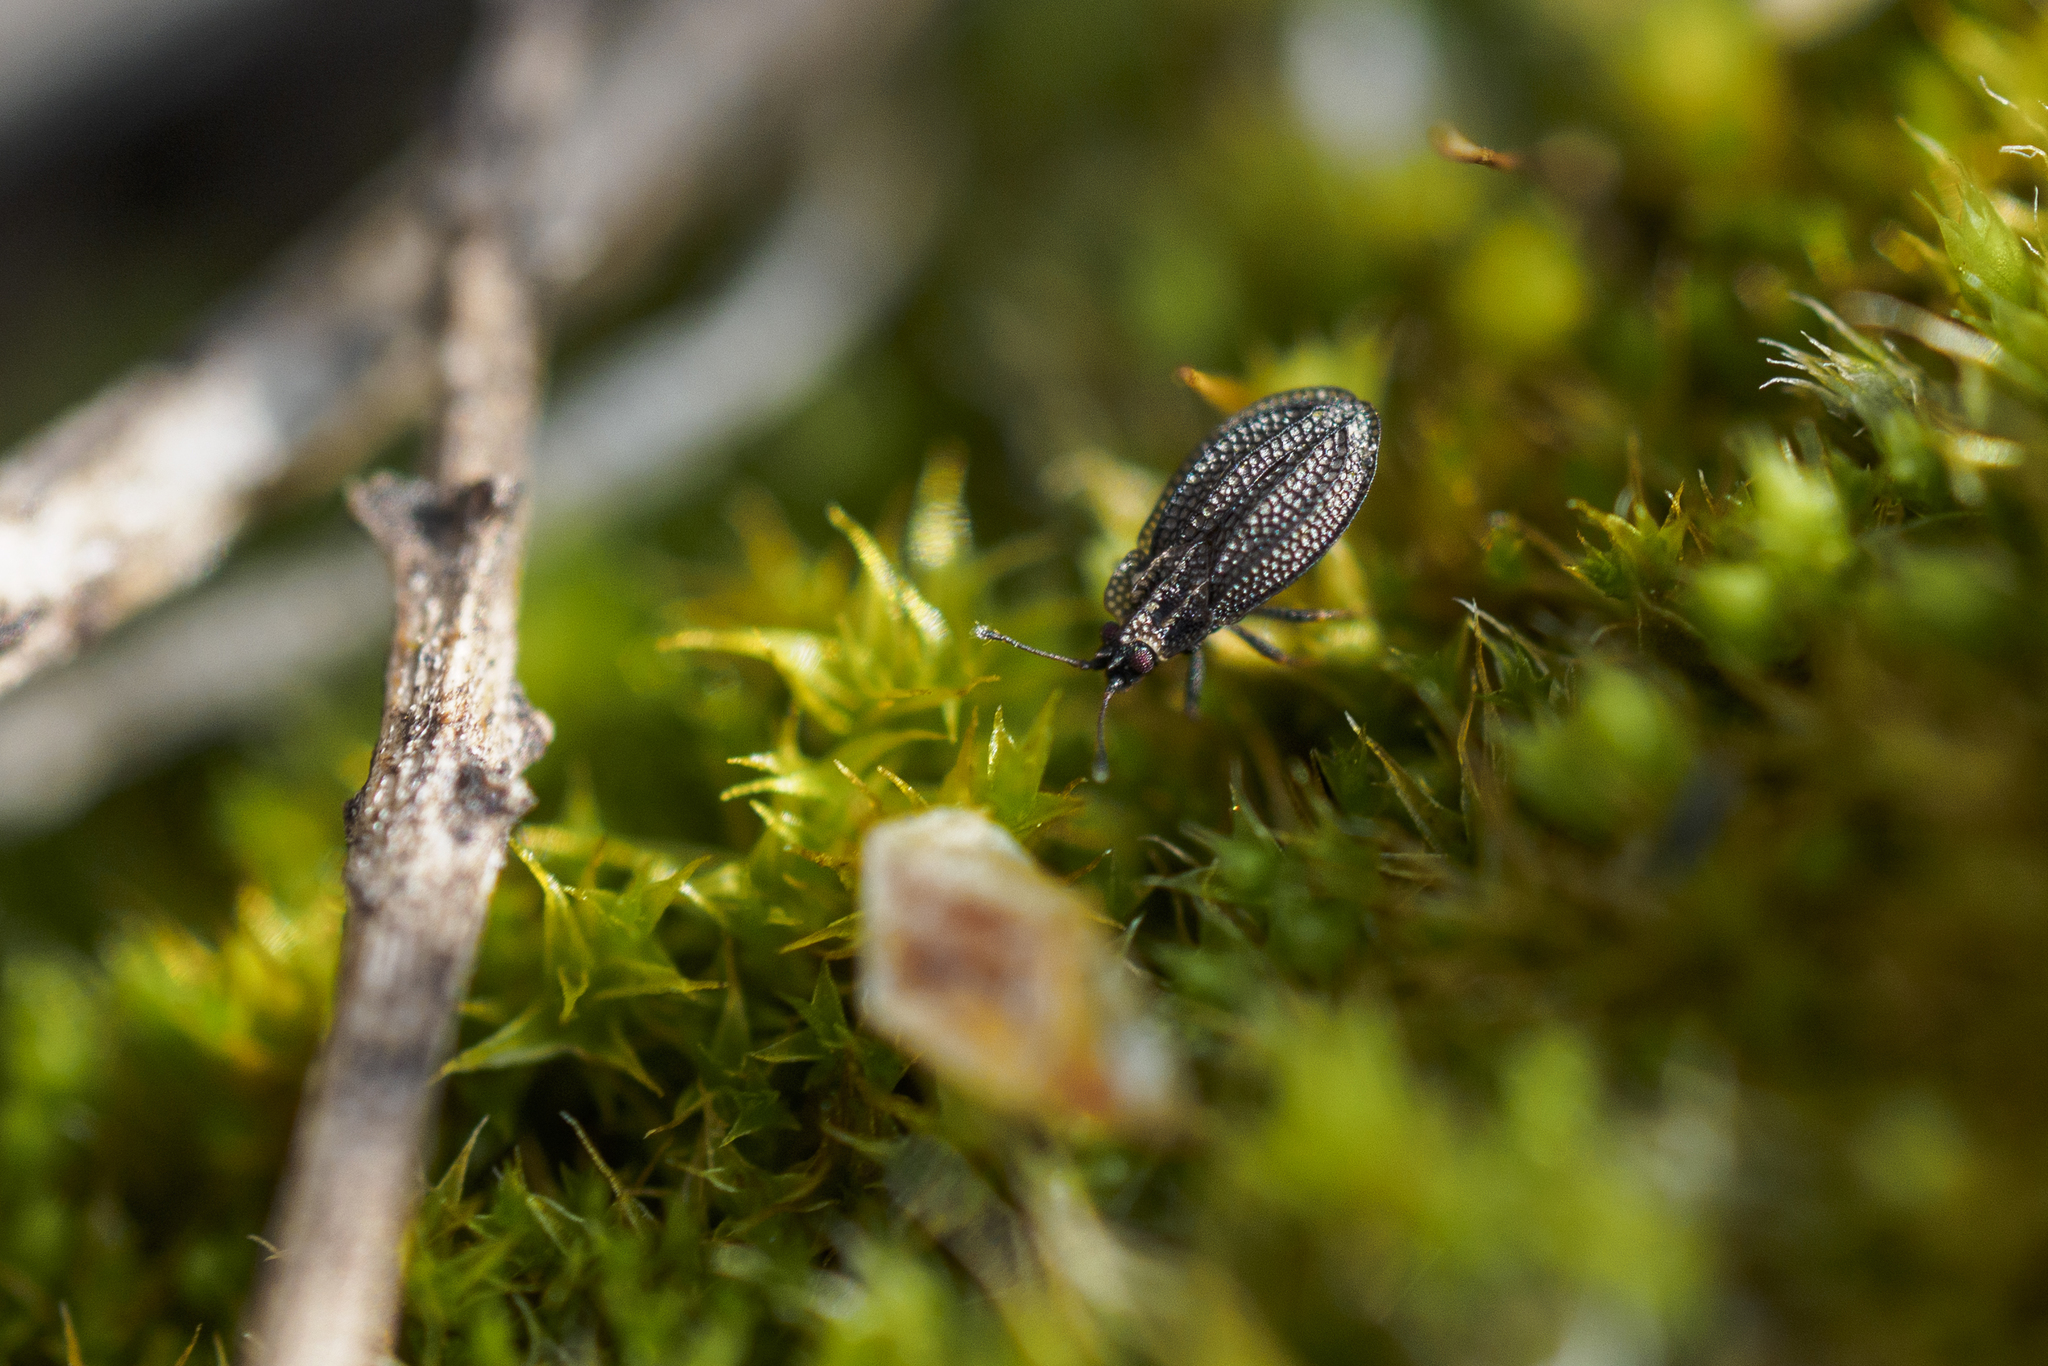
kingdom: Animalia
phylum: Arthropoda
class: Insecta
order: Hemiptera
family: Tingidae
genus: Acalypta
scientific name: Acalypta marginata
